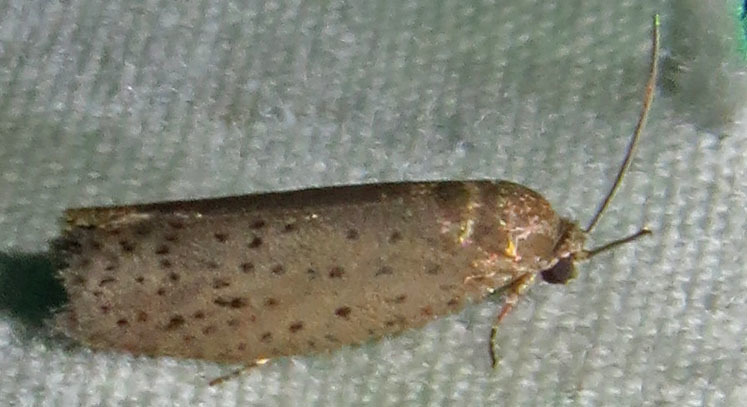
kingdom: Animalia
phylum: Arthropoda
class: Insecta
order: Lepidoptera
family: Galacticidae
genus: Homadaula
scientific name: Homadaula anisocentra
